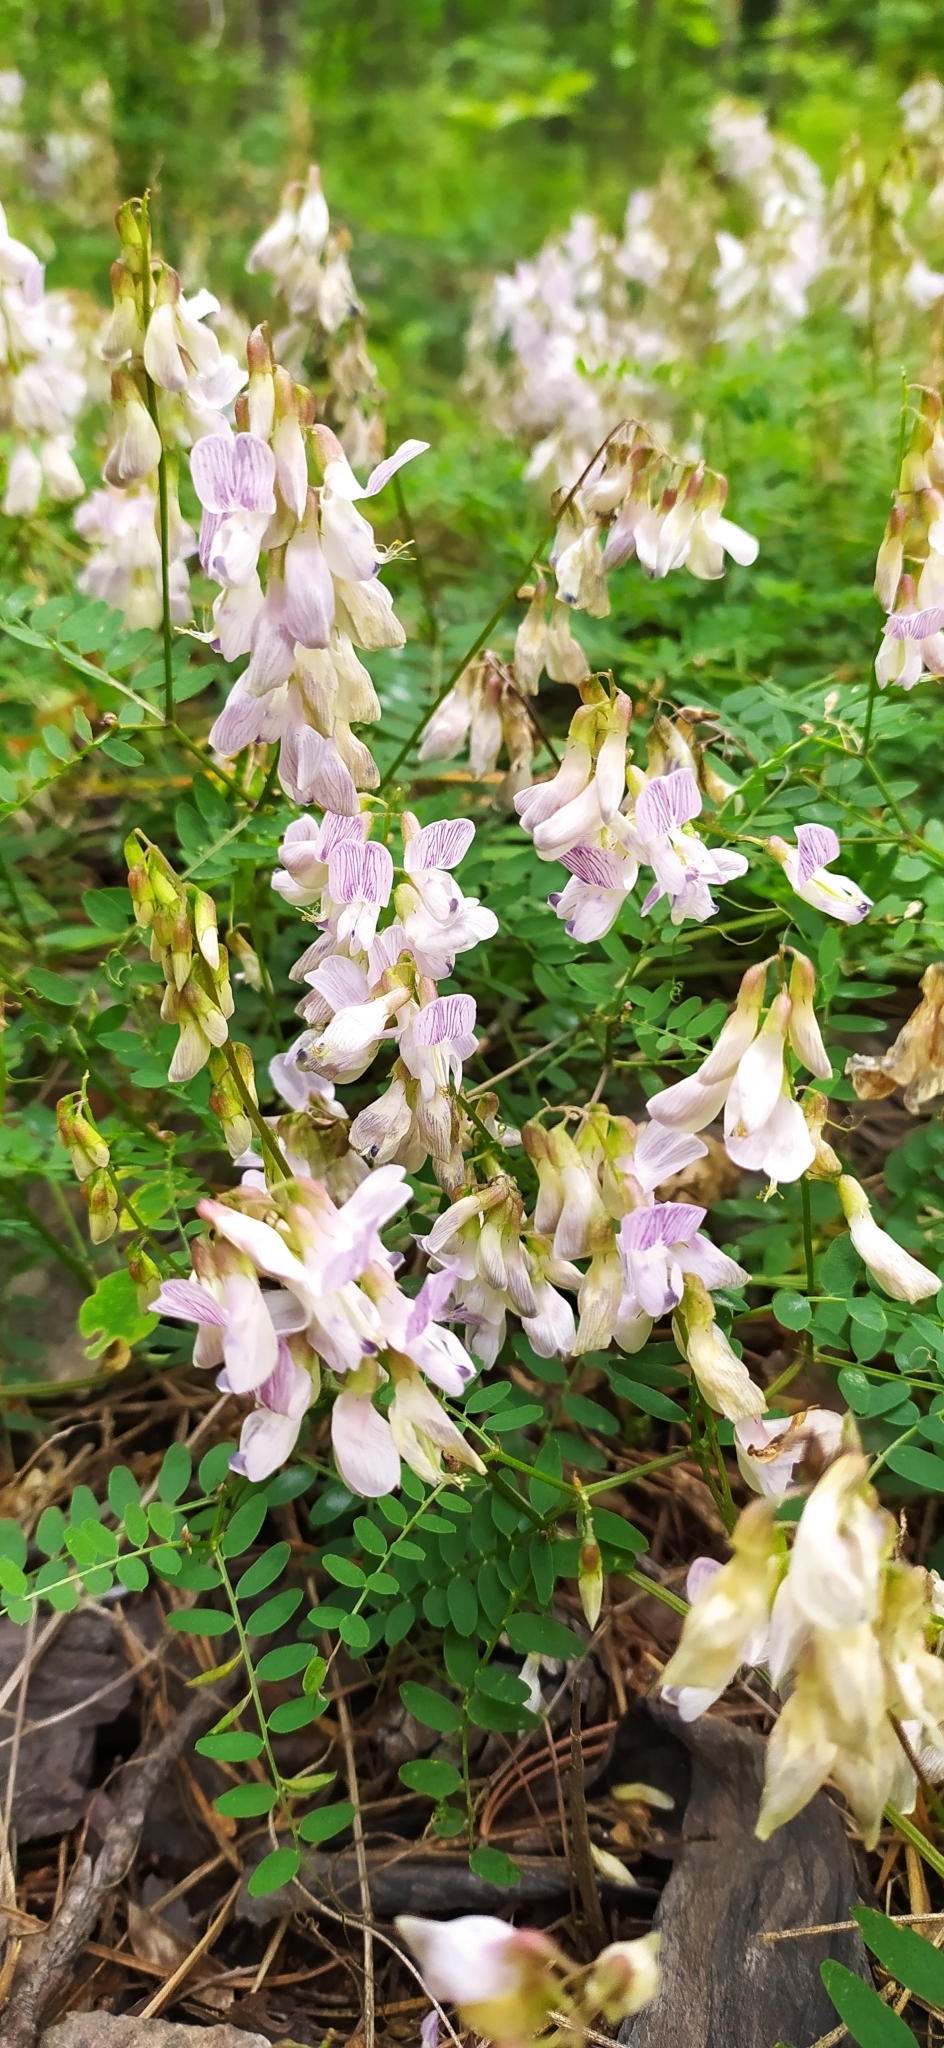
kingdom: Plantae
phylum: Tracheophyta
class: Magnoliopsida
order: Fabales
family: Fabaceae
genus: Vicia
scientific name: Vicia sylvatica
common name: Wood vetch
